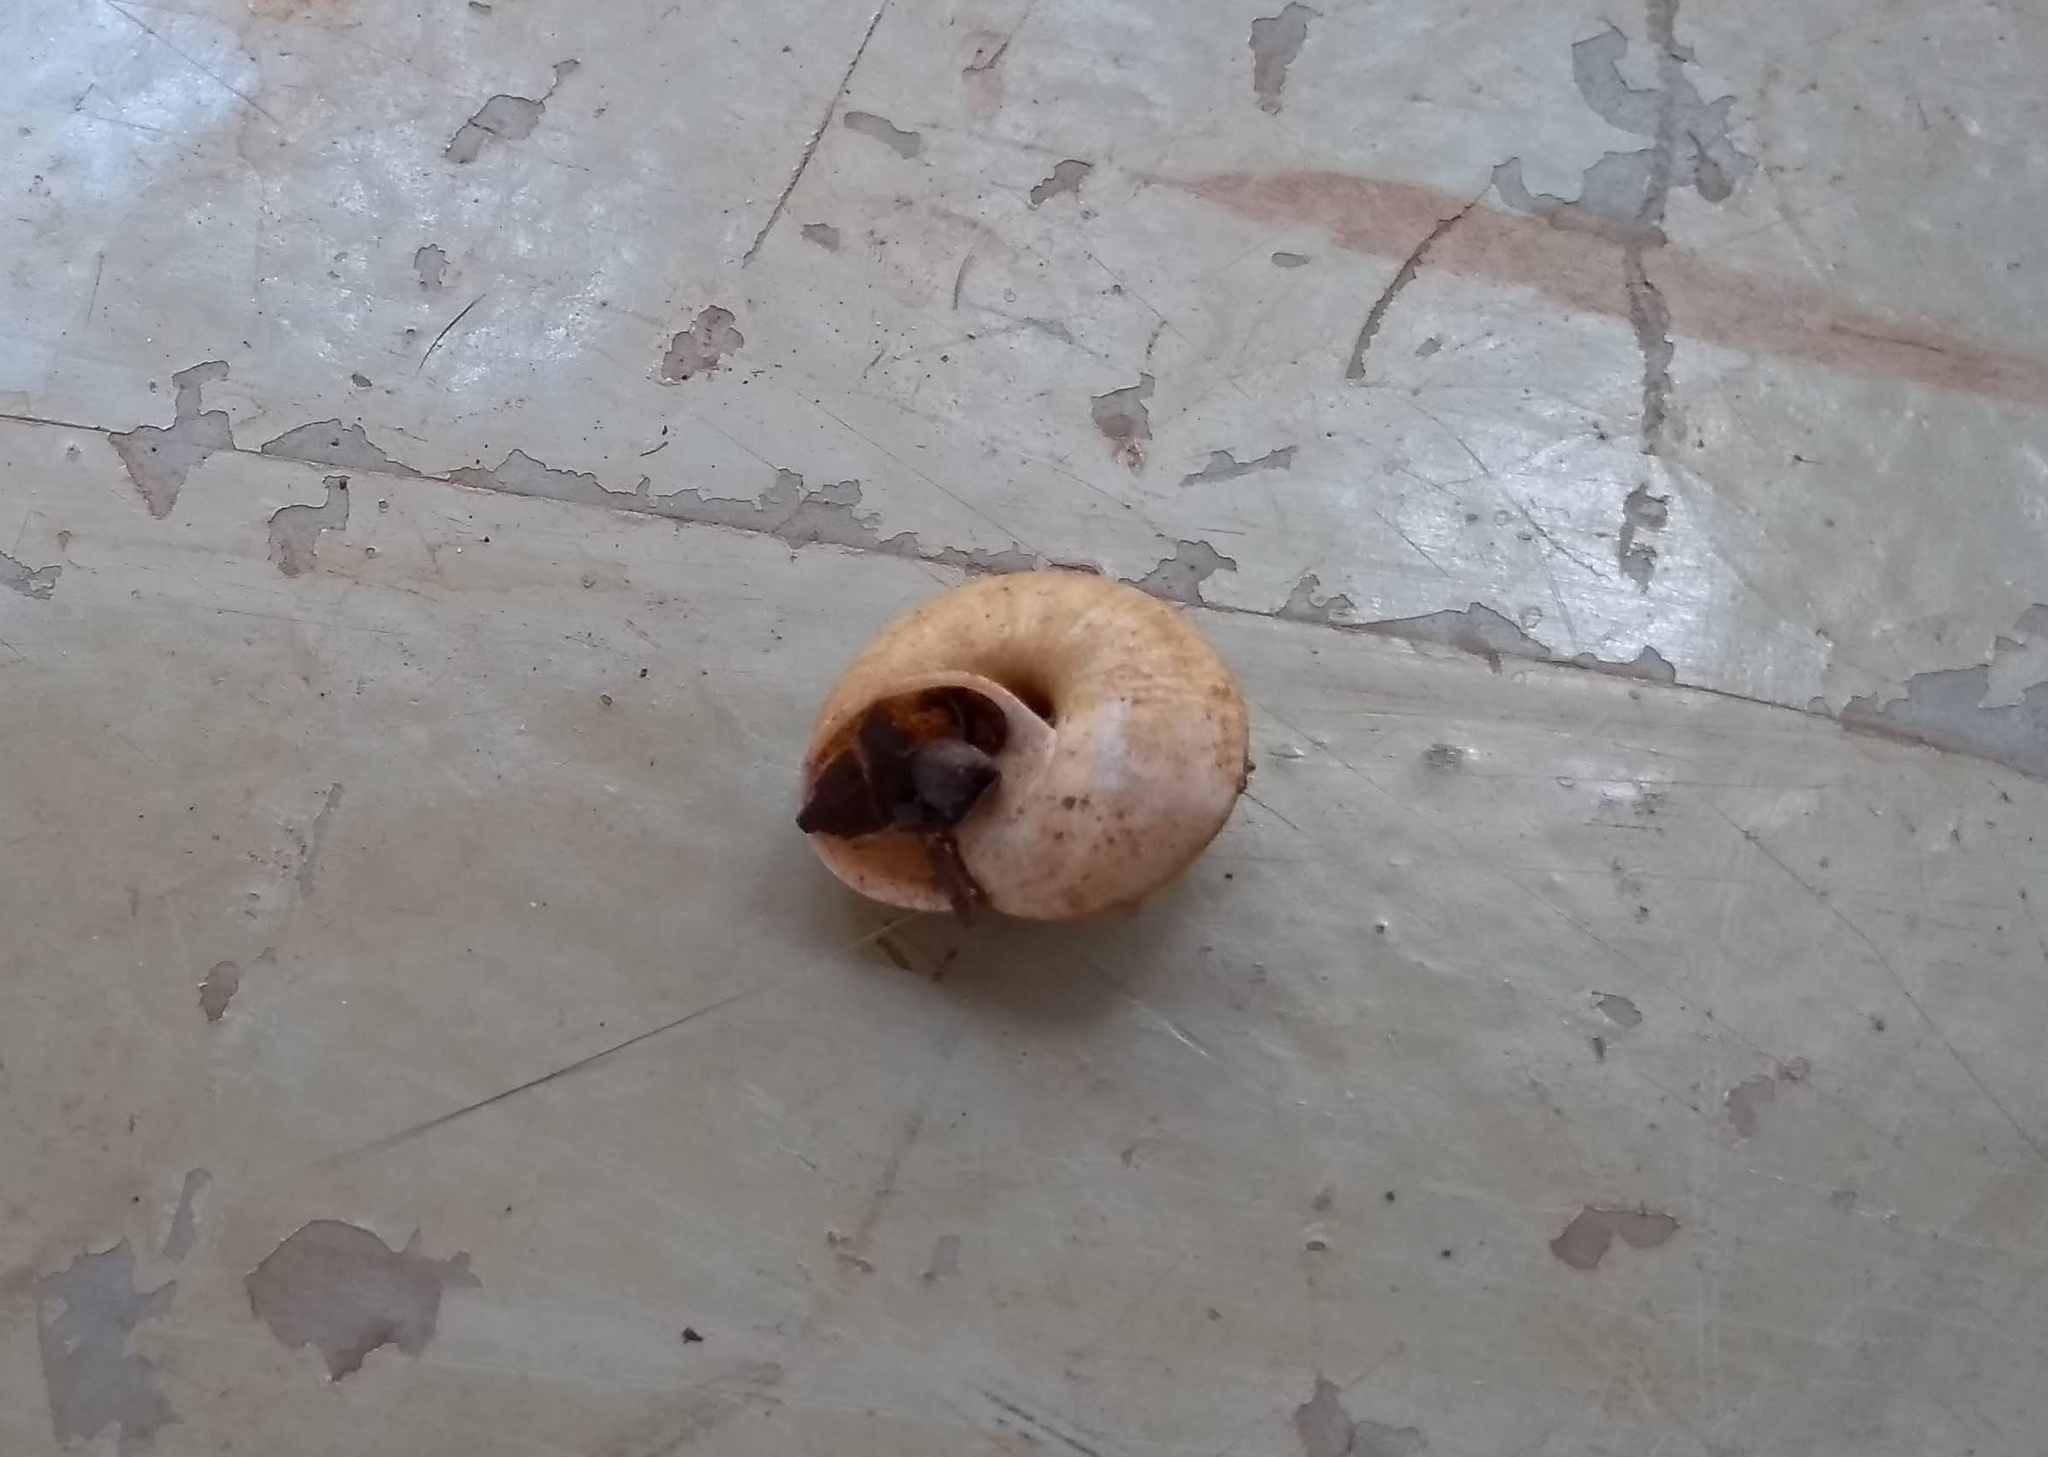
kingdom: Animalia
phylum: Mollusca
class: Gastropoda
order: Stylommatophora
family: Camaenidae
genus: Bradybaena
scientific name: Bradybaena similaris
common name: Asian trampsnail
